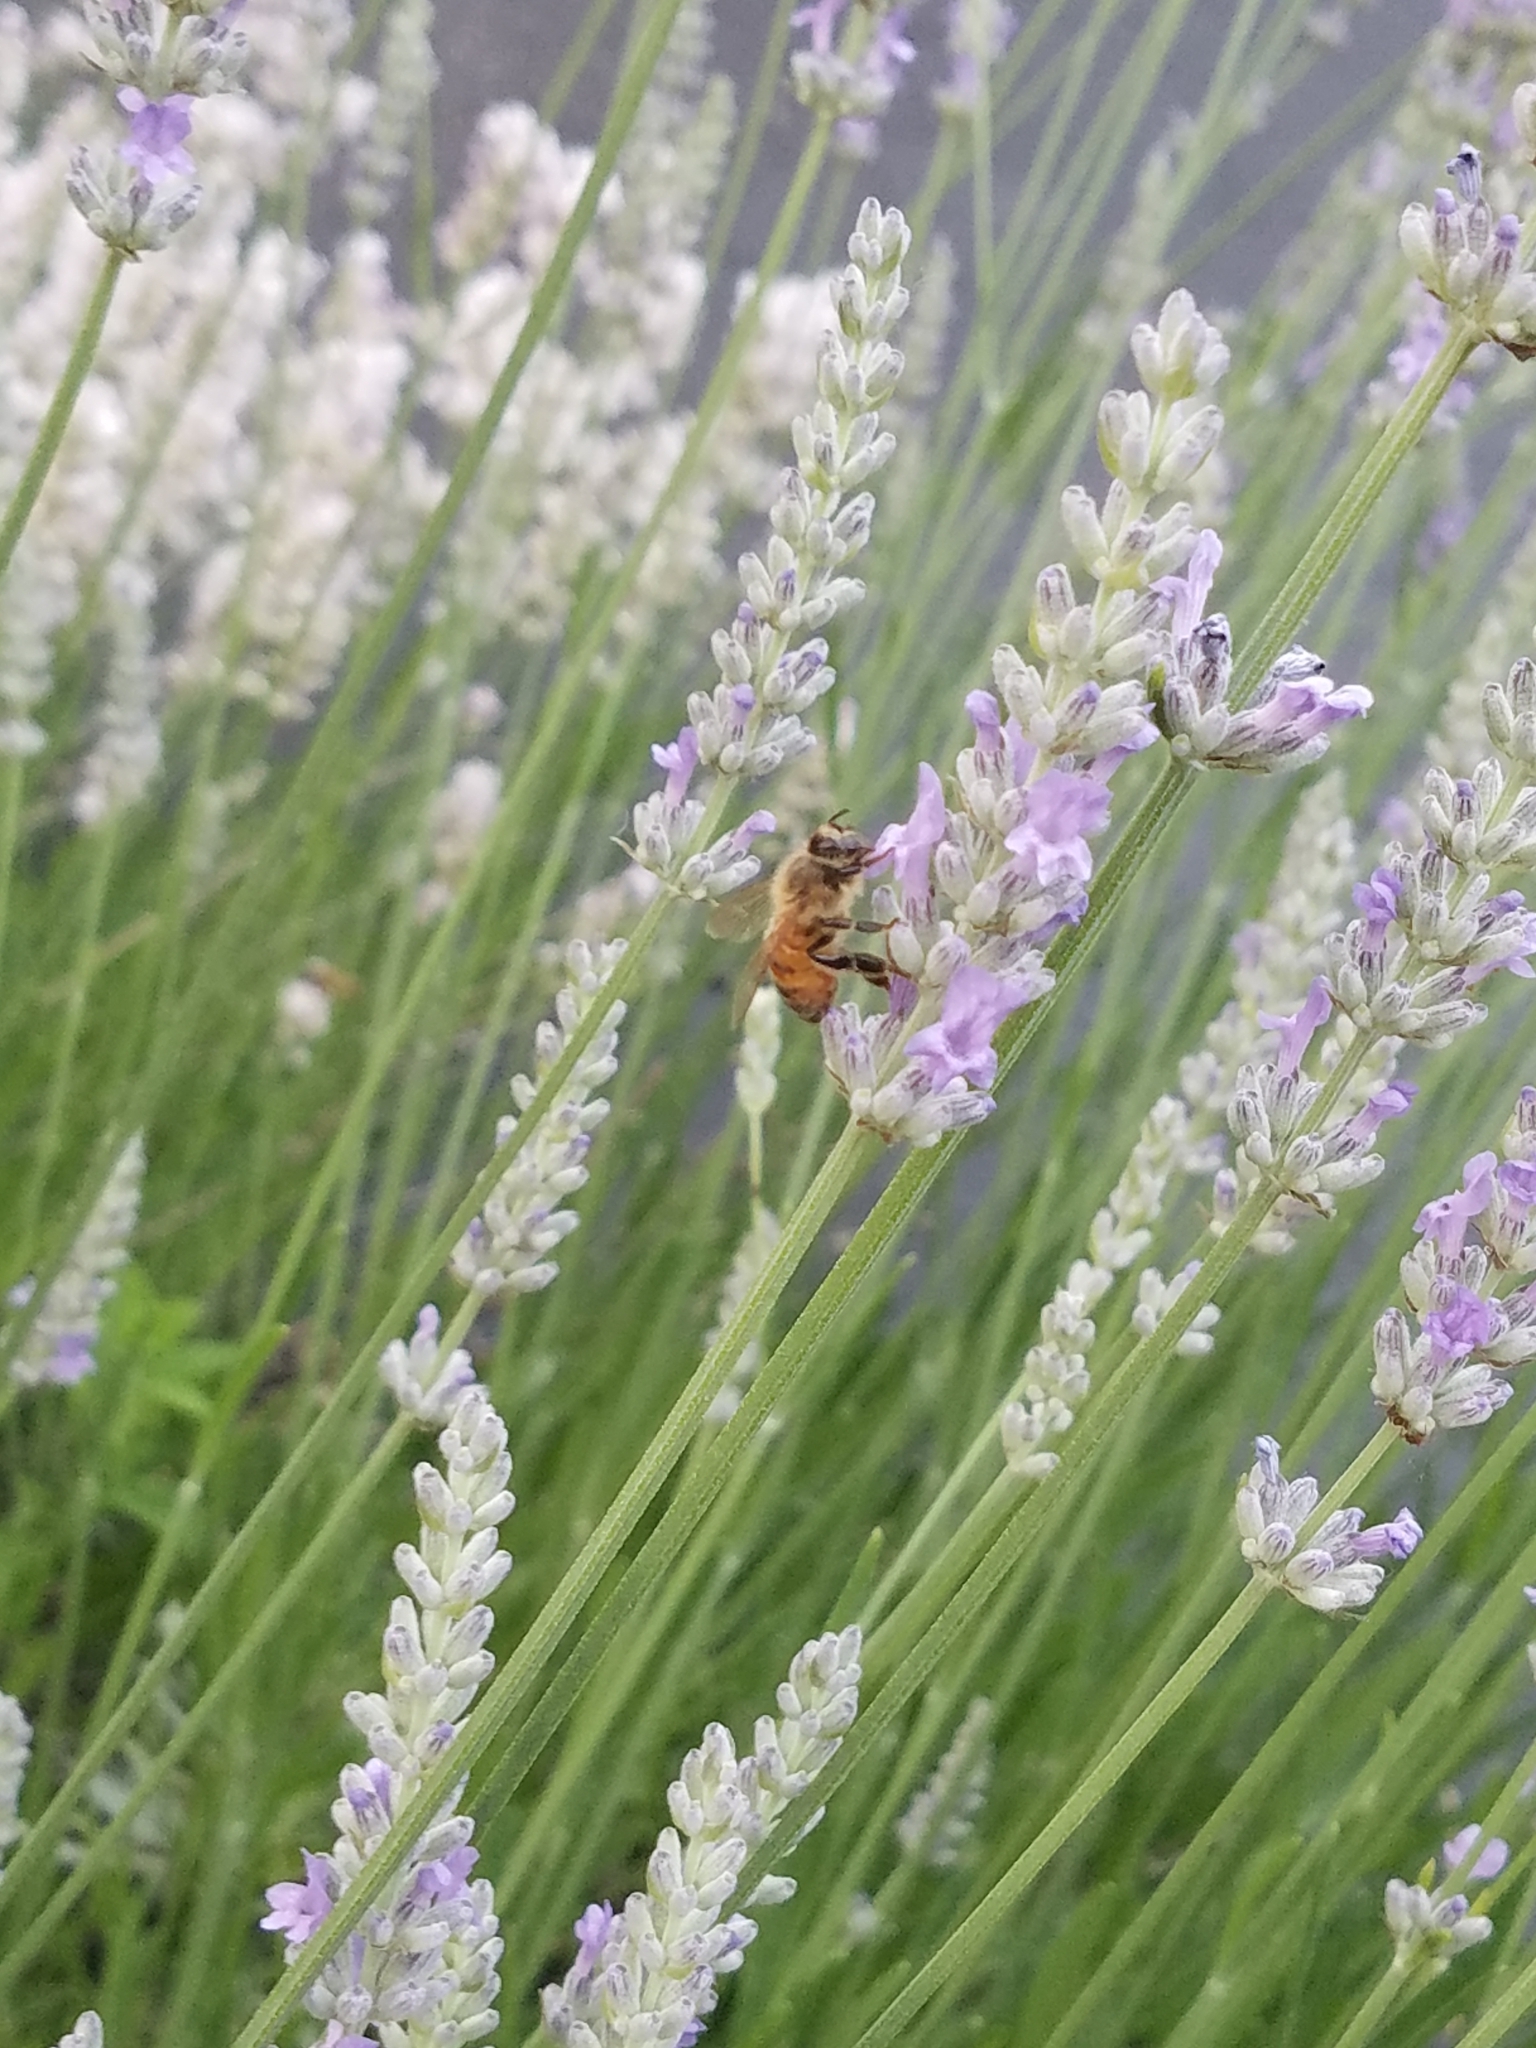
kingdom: Animalia
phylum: Arthropoda
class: Insecta
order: Hymenoptera
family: Apidae
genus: Apis
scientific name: Apis mellifera
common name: Honey bee
